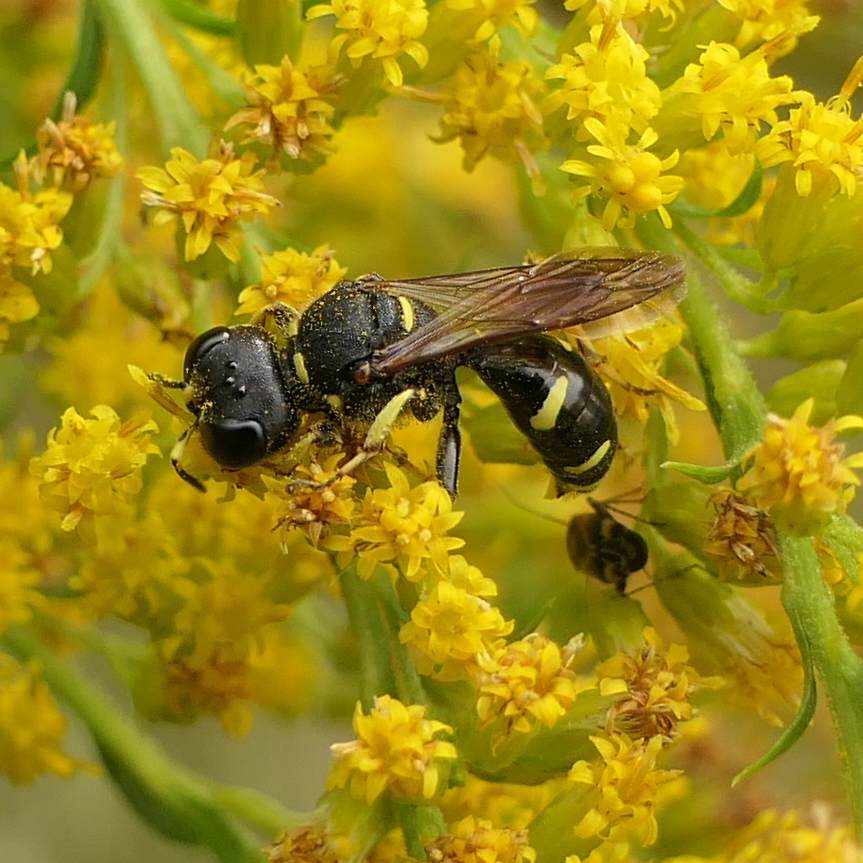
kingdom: Animalia
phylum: Arthropoda
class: Insecta
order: Hymenoptera
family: Crabronidae
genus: Ectemnius
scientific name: Ectemnius continuus
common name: Common ectemnius
